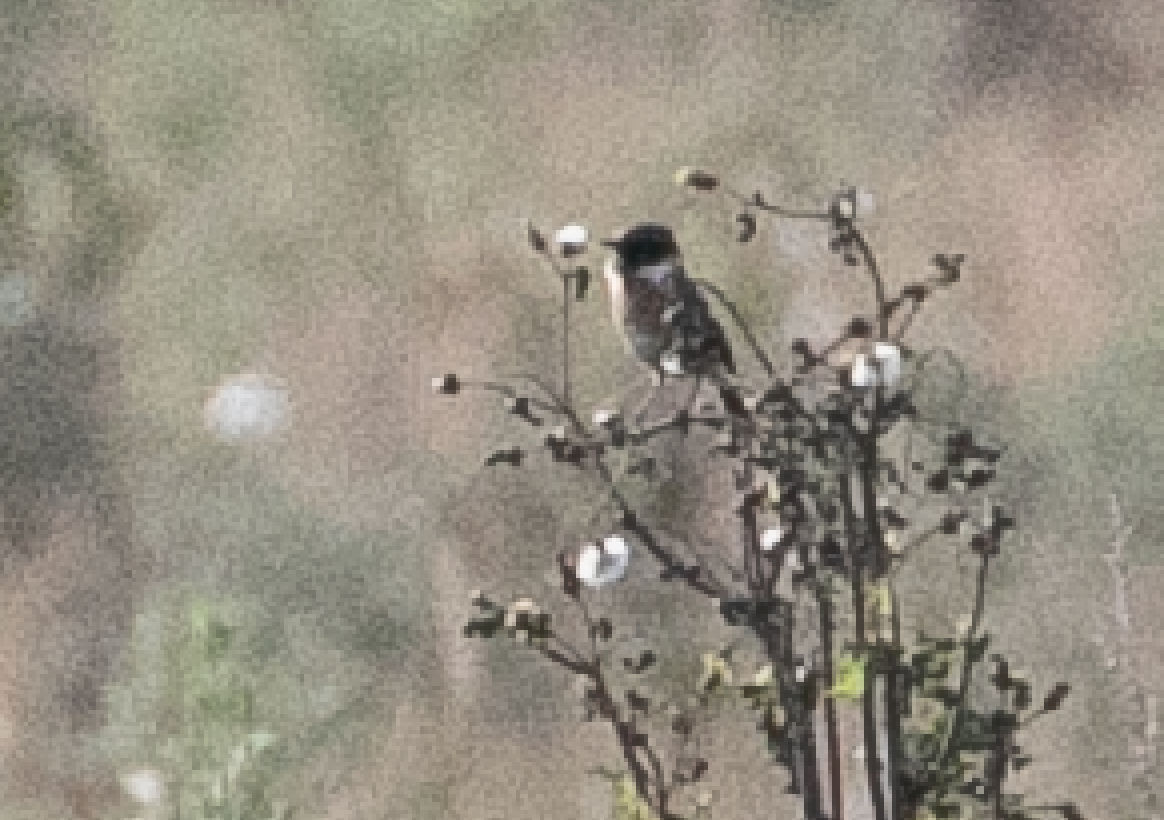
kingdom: Animalia
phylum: Chordata
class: Aves
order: Passeriformes
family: Muscicapidae
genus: Saxicola
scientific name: Saxicola rubicola
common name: European stonechat
